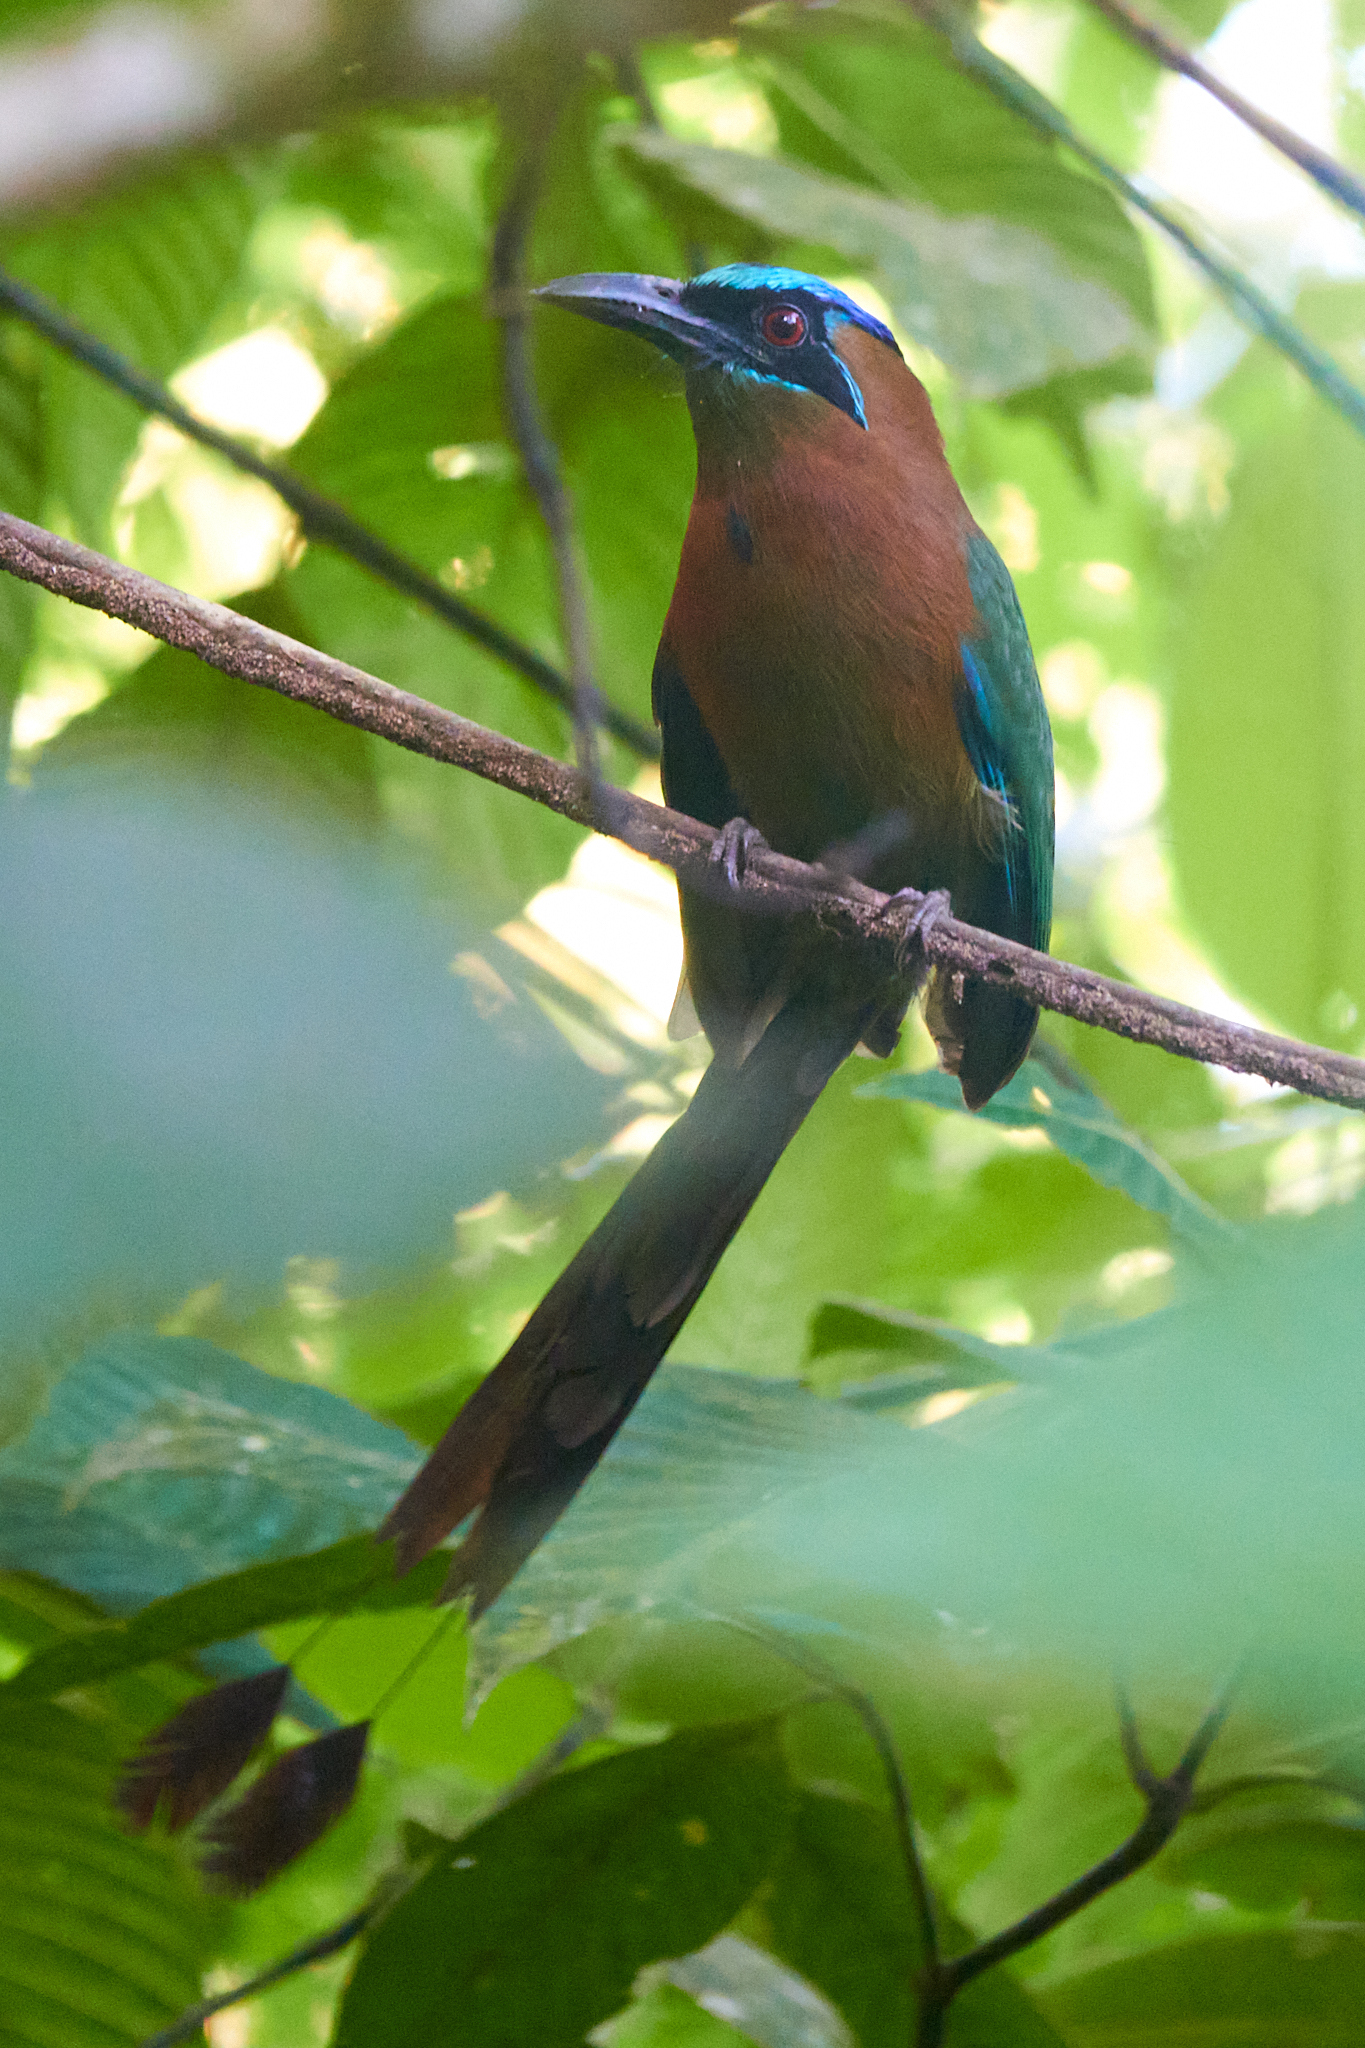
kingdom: Animalia
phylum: Chordata
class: Aves
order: Coraciiformes
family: Momotidae
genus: Momotus
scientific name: Momotus lessonii
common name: Lesson's motmot
